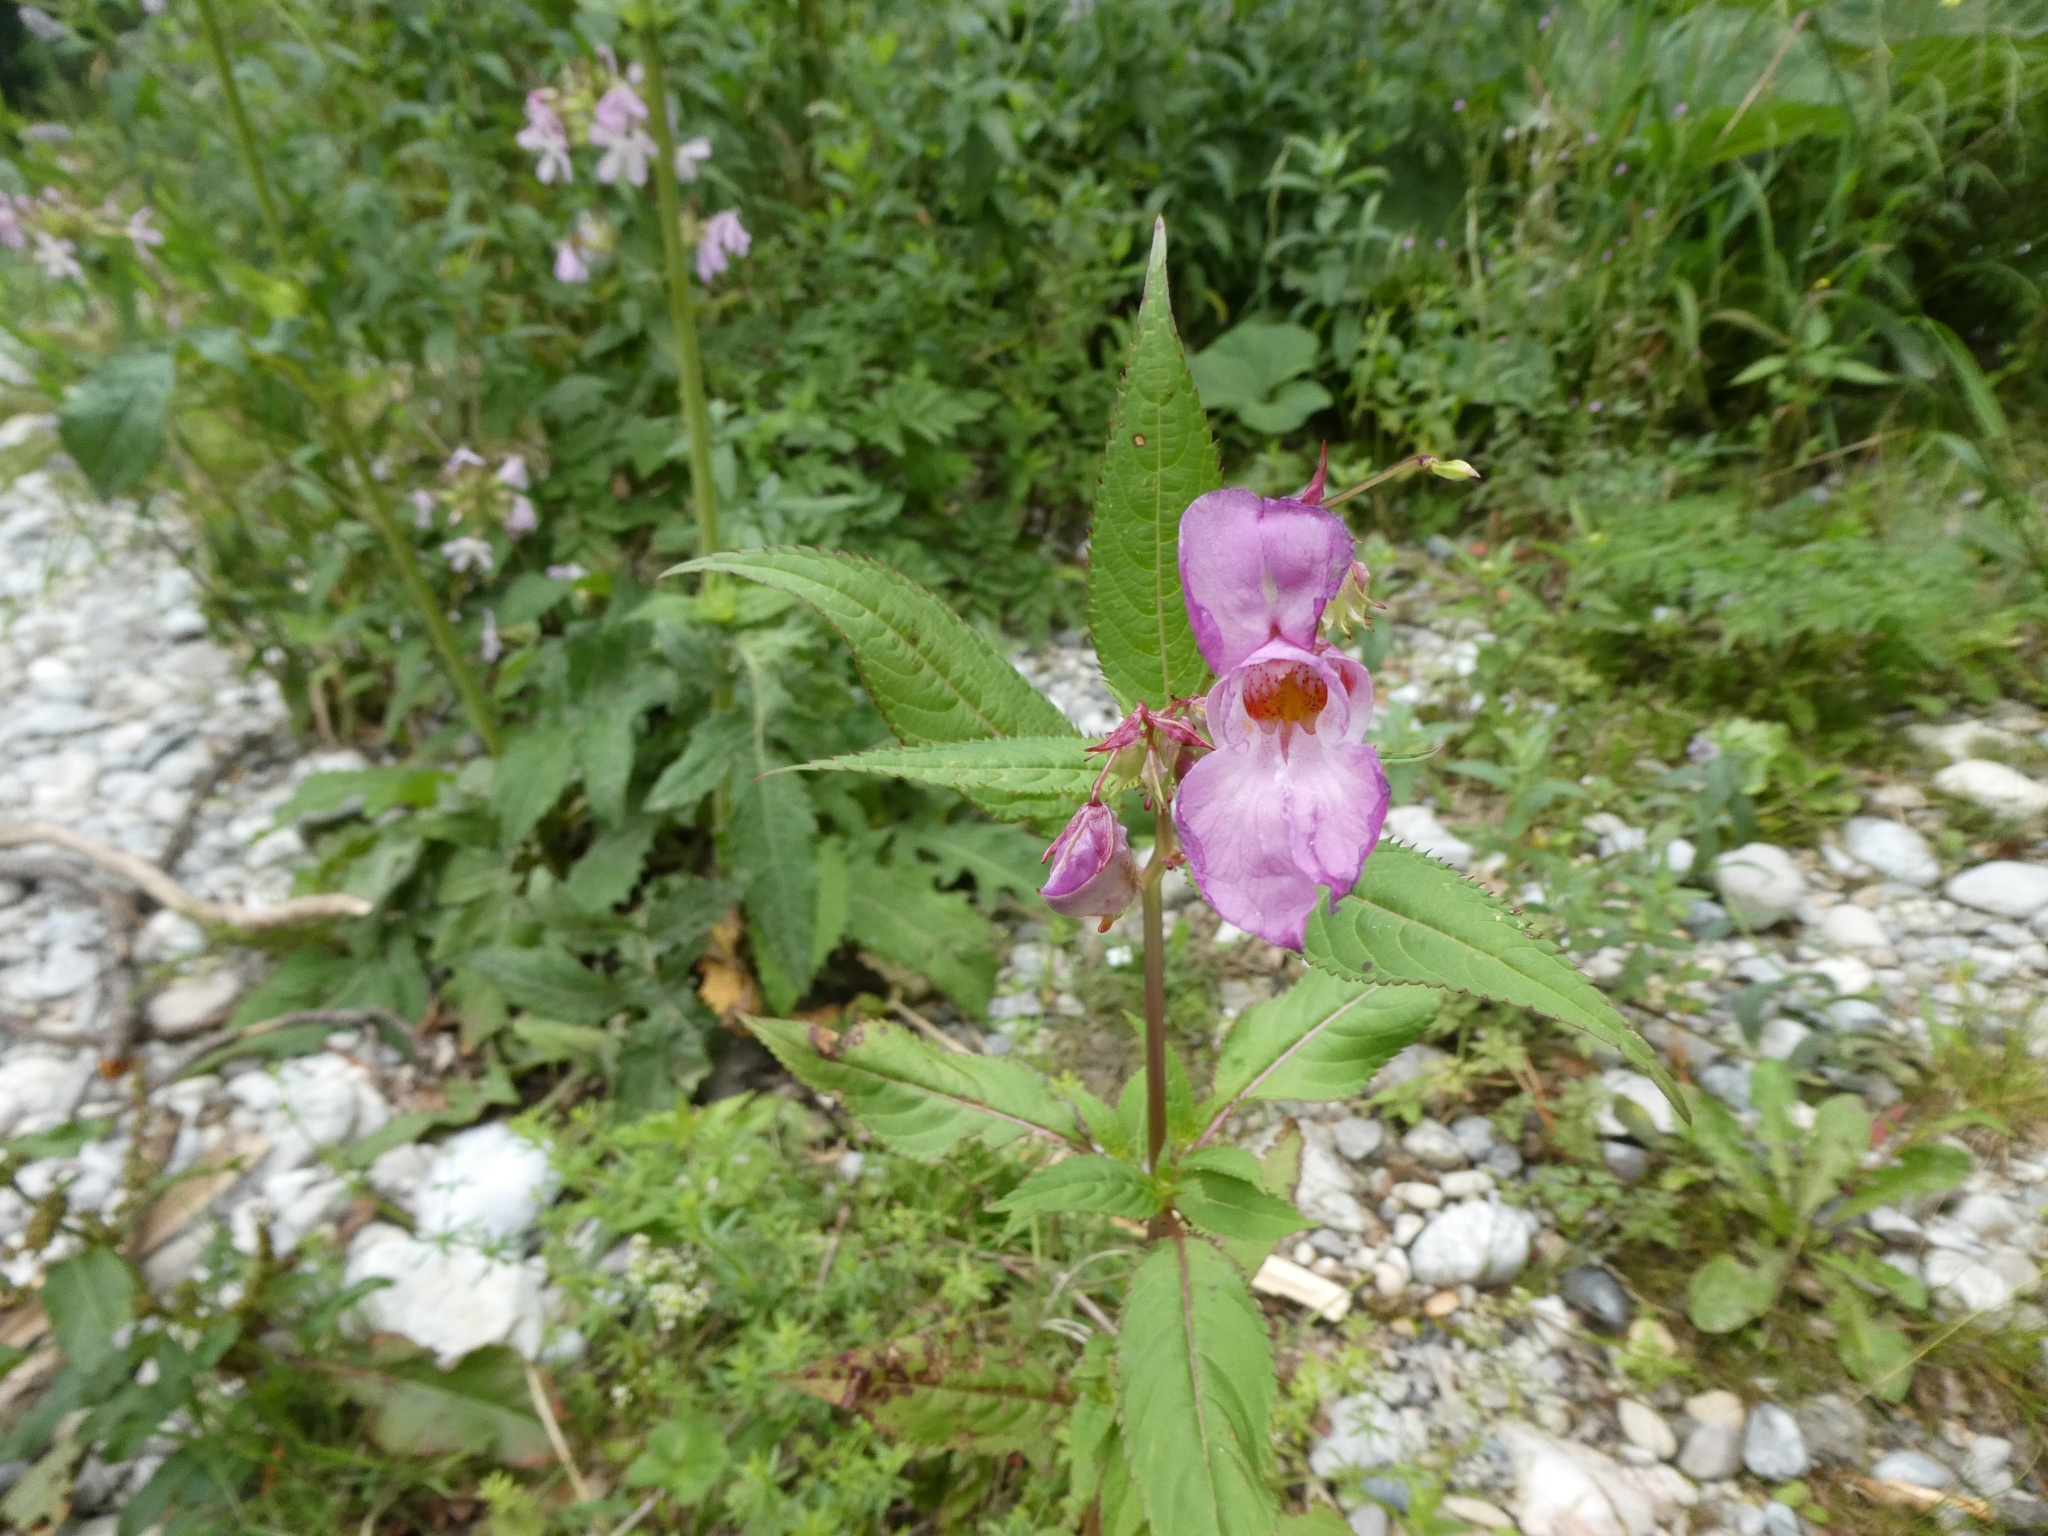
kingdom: Plantae
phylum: Tracheophyta
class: Magnoliopsida
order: Ericales
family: Balsaminaceae
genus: Impatiens
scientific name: Impatiens glandulifera
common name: Himalayan balsam
